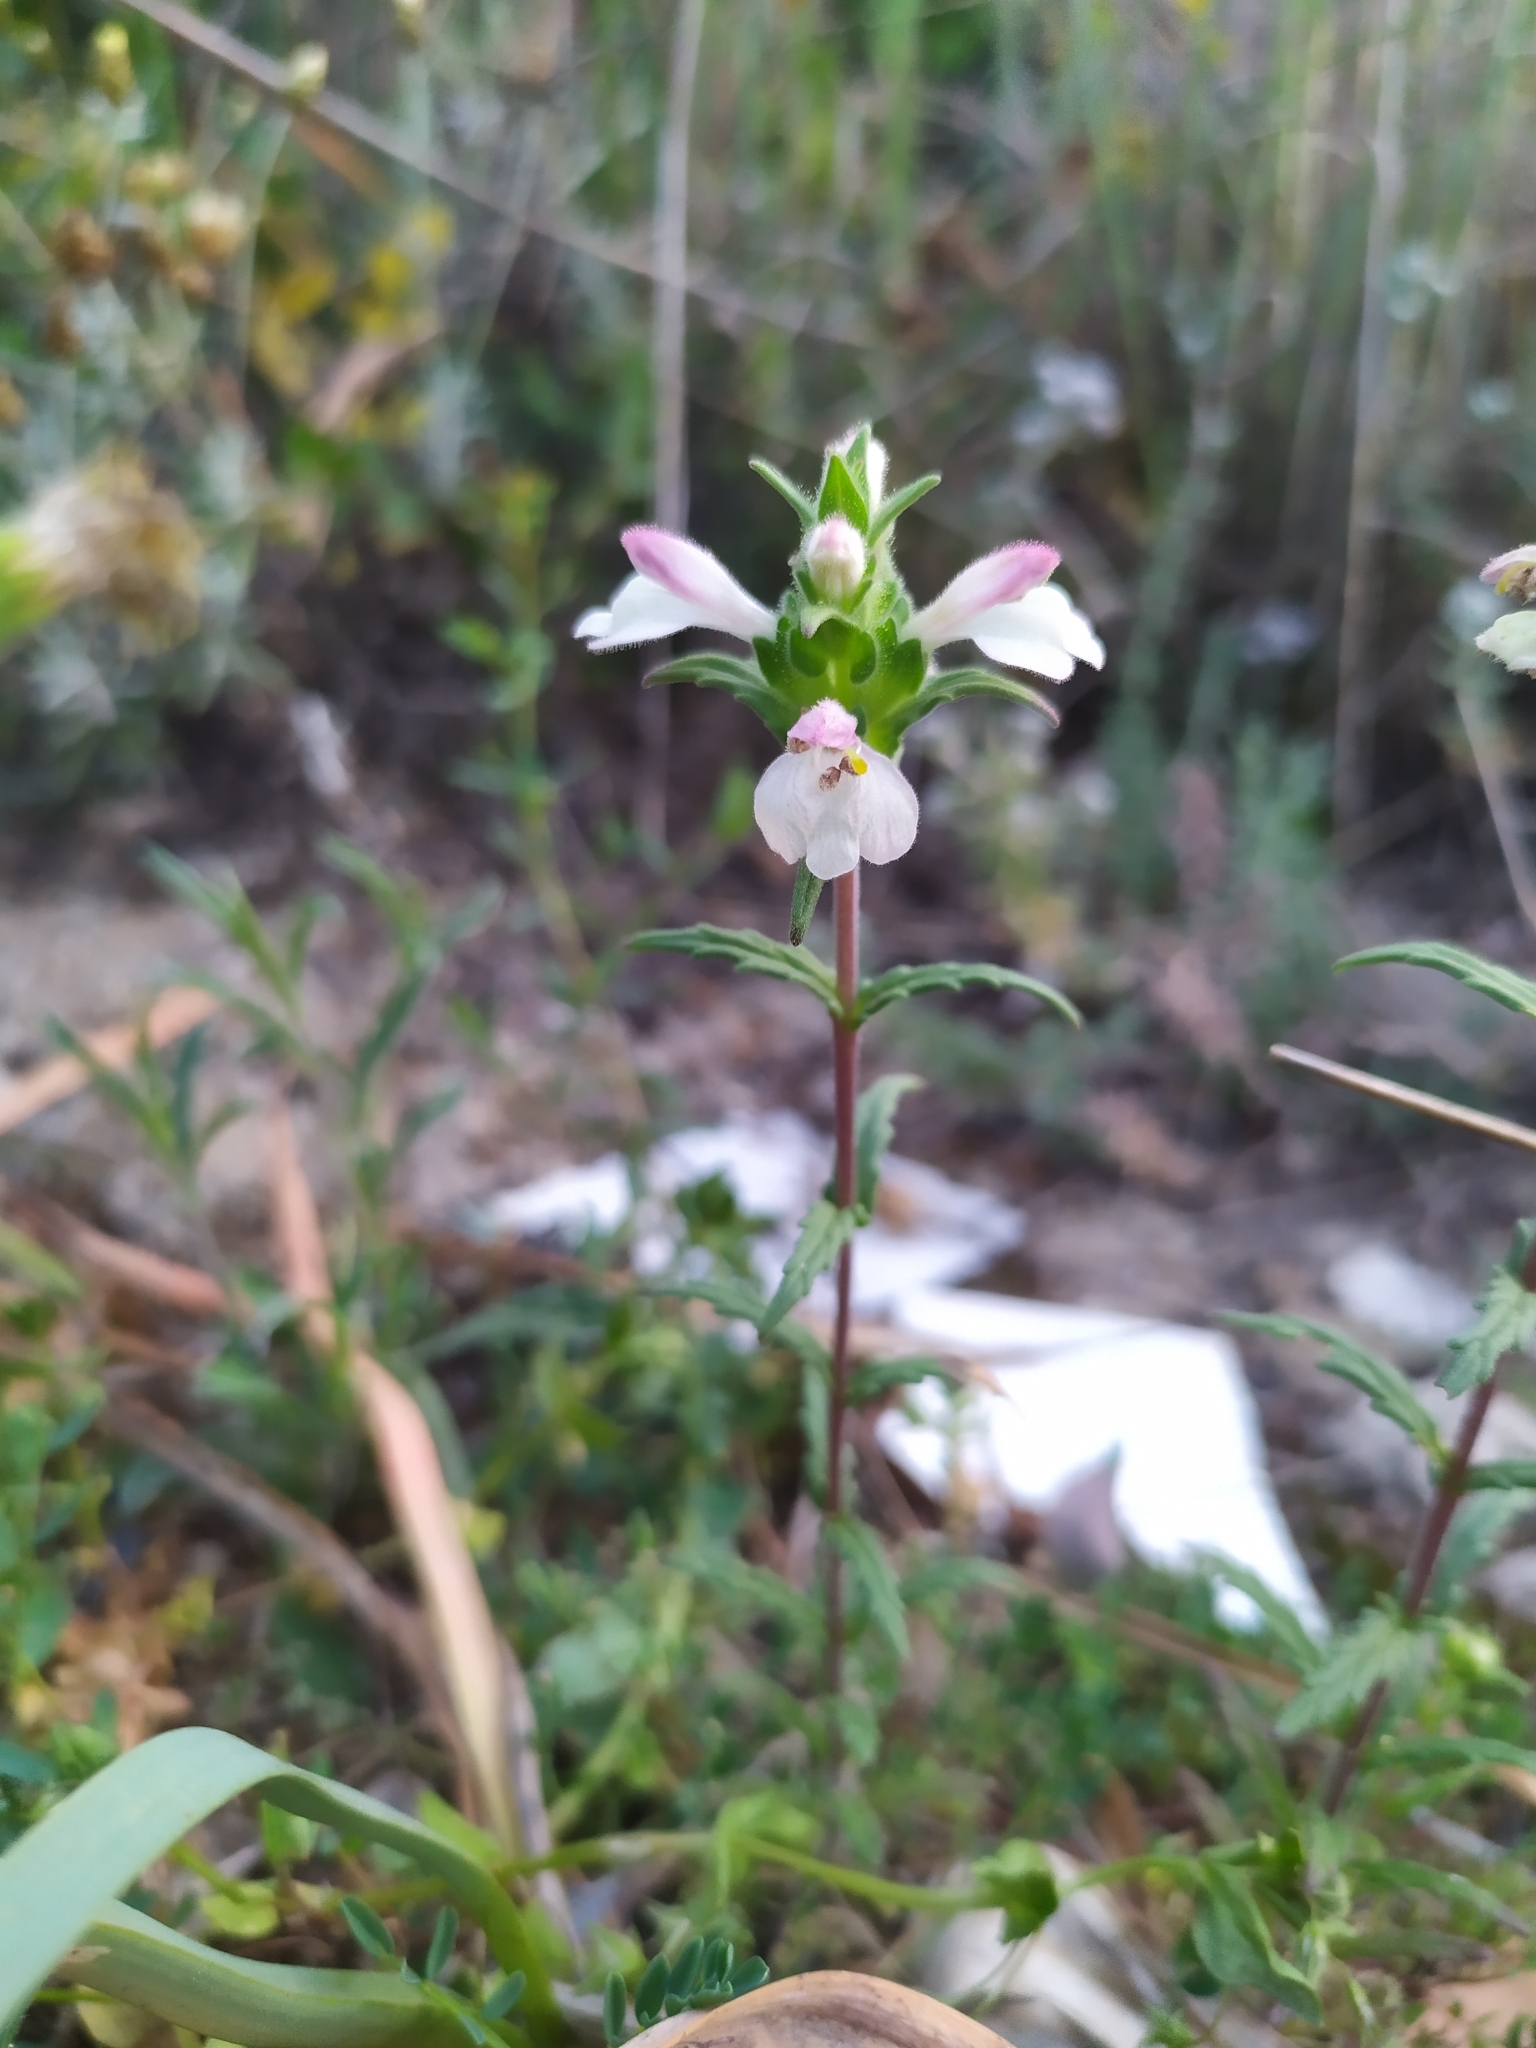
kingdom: Plantae
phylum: Tracheophyta
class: Magnoliopsida
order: Lamiales
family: Orobanchaceae
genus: Bellardia
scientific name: Bellardia trixago
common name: Mediterranean lineseed
